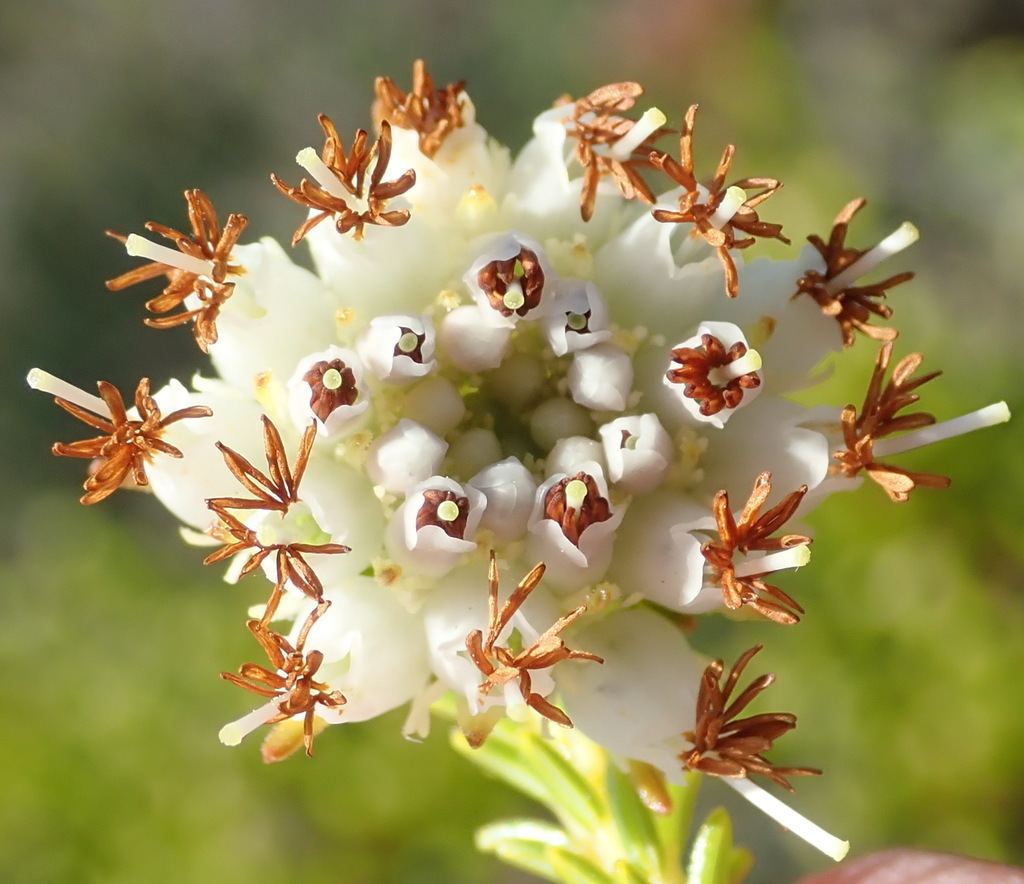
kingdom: Plantae
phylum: Tracheophyta
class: Magnoliopsida
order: Ericales
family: Ericaceae
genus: Erica
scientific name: Erica bruniifolia
